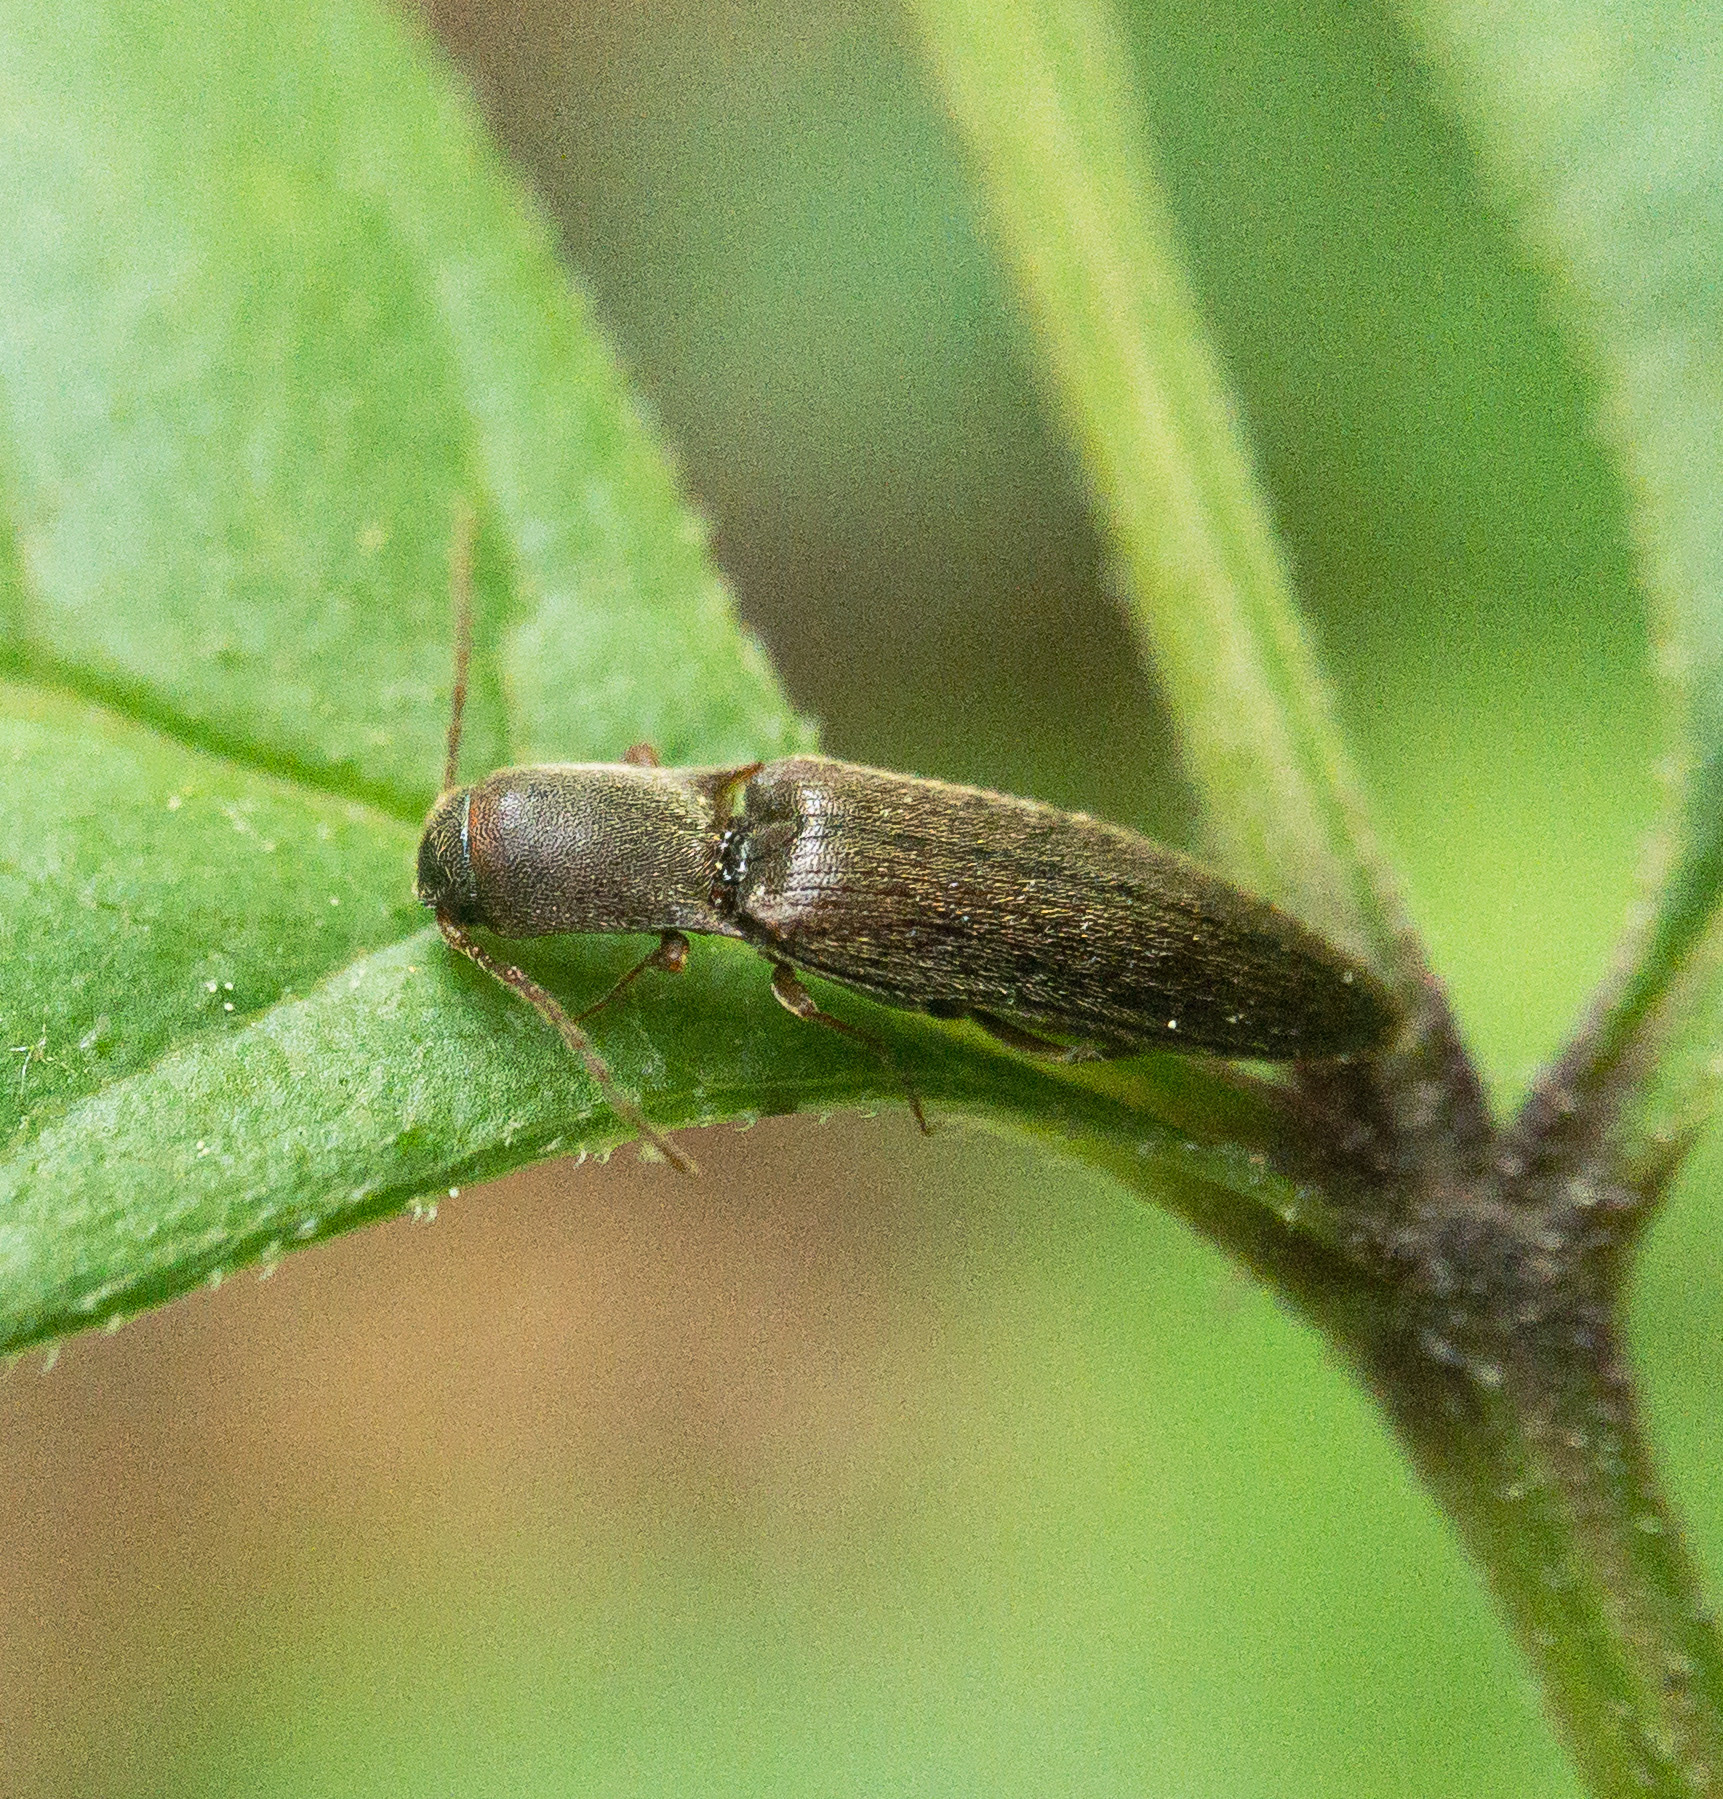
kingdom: Animalia
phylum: Arthropoda
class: Insecta
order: Coleoptera
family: Elateridae
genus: Agriotes
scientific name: Agriotes oblongicollis
